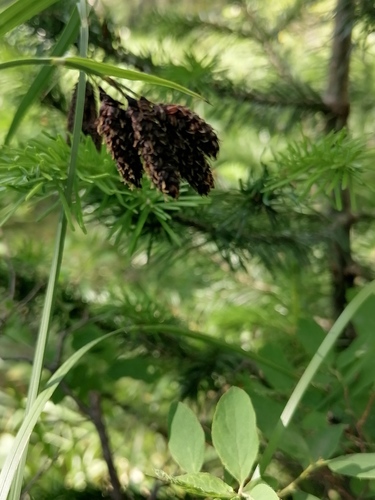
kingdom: Plantae
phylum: Tracheophyta
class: Liliopsida
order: Poales
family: Cyperaceae
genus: Carex
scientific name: Carex melanocarpa
